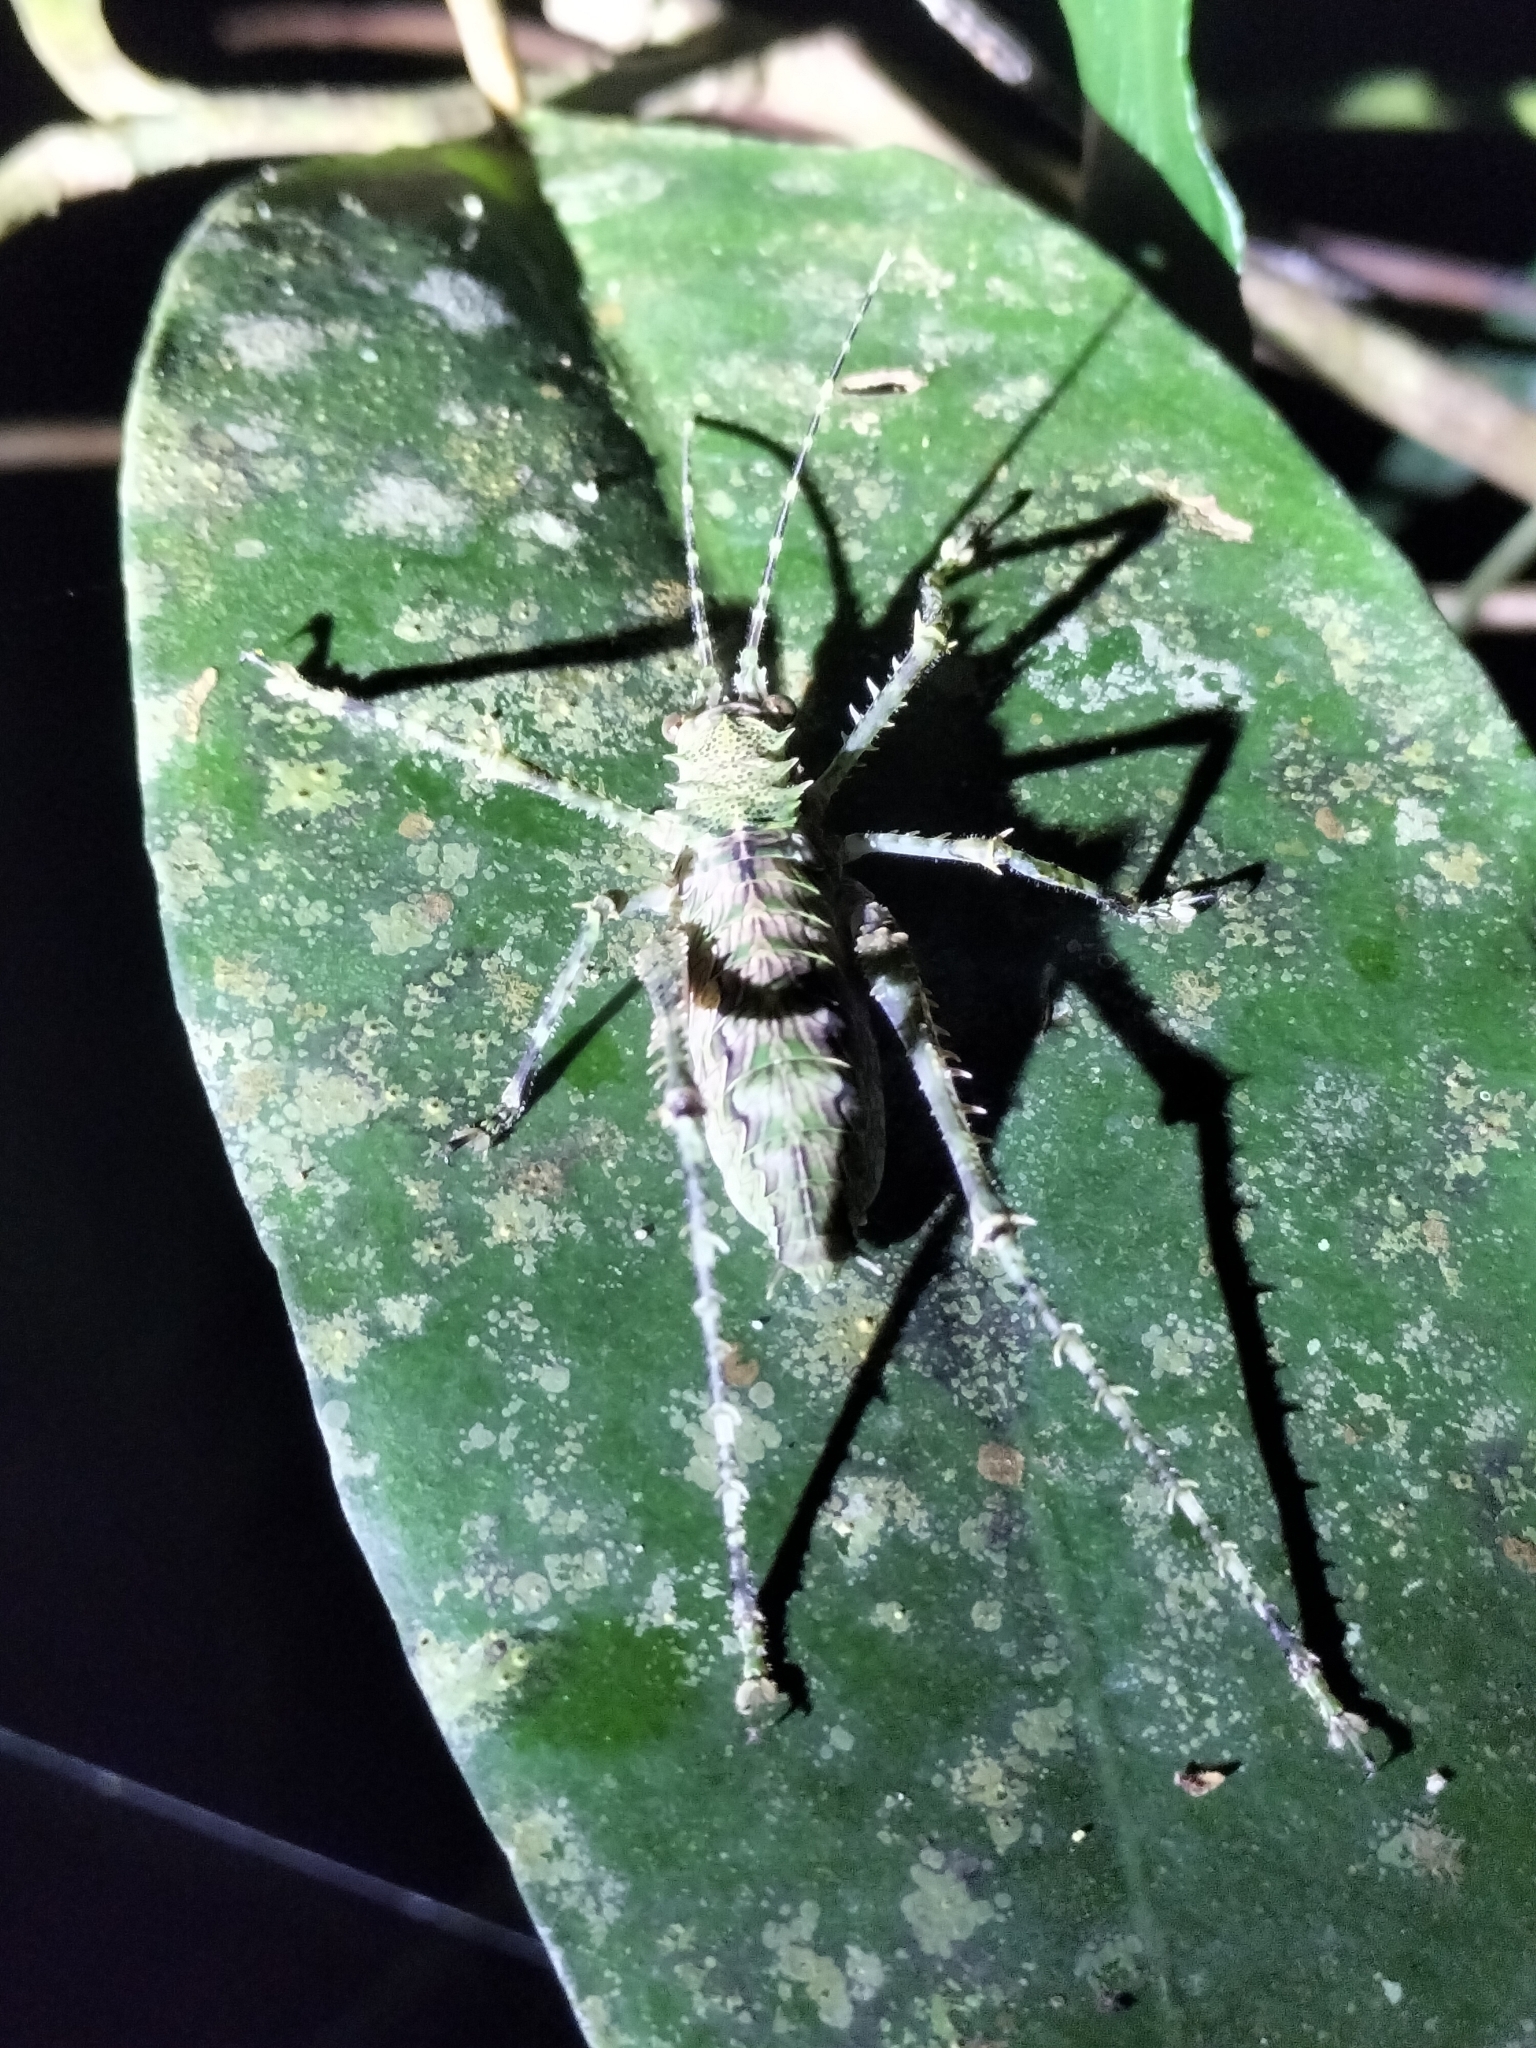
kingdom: Animalia
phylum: Arthropoda
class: Insecta
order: Orthoptera
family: Tettigoniidae
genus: Phricta
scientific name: Phricta spinosa
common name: Giant spiny forest katydid
